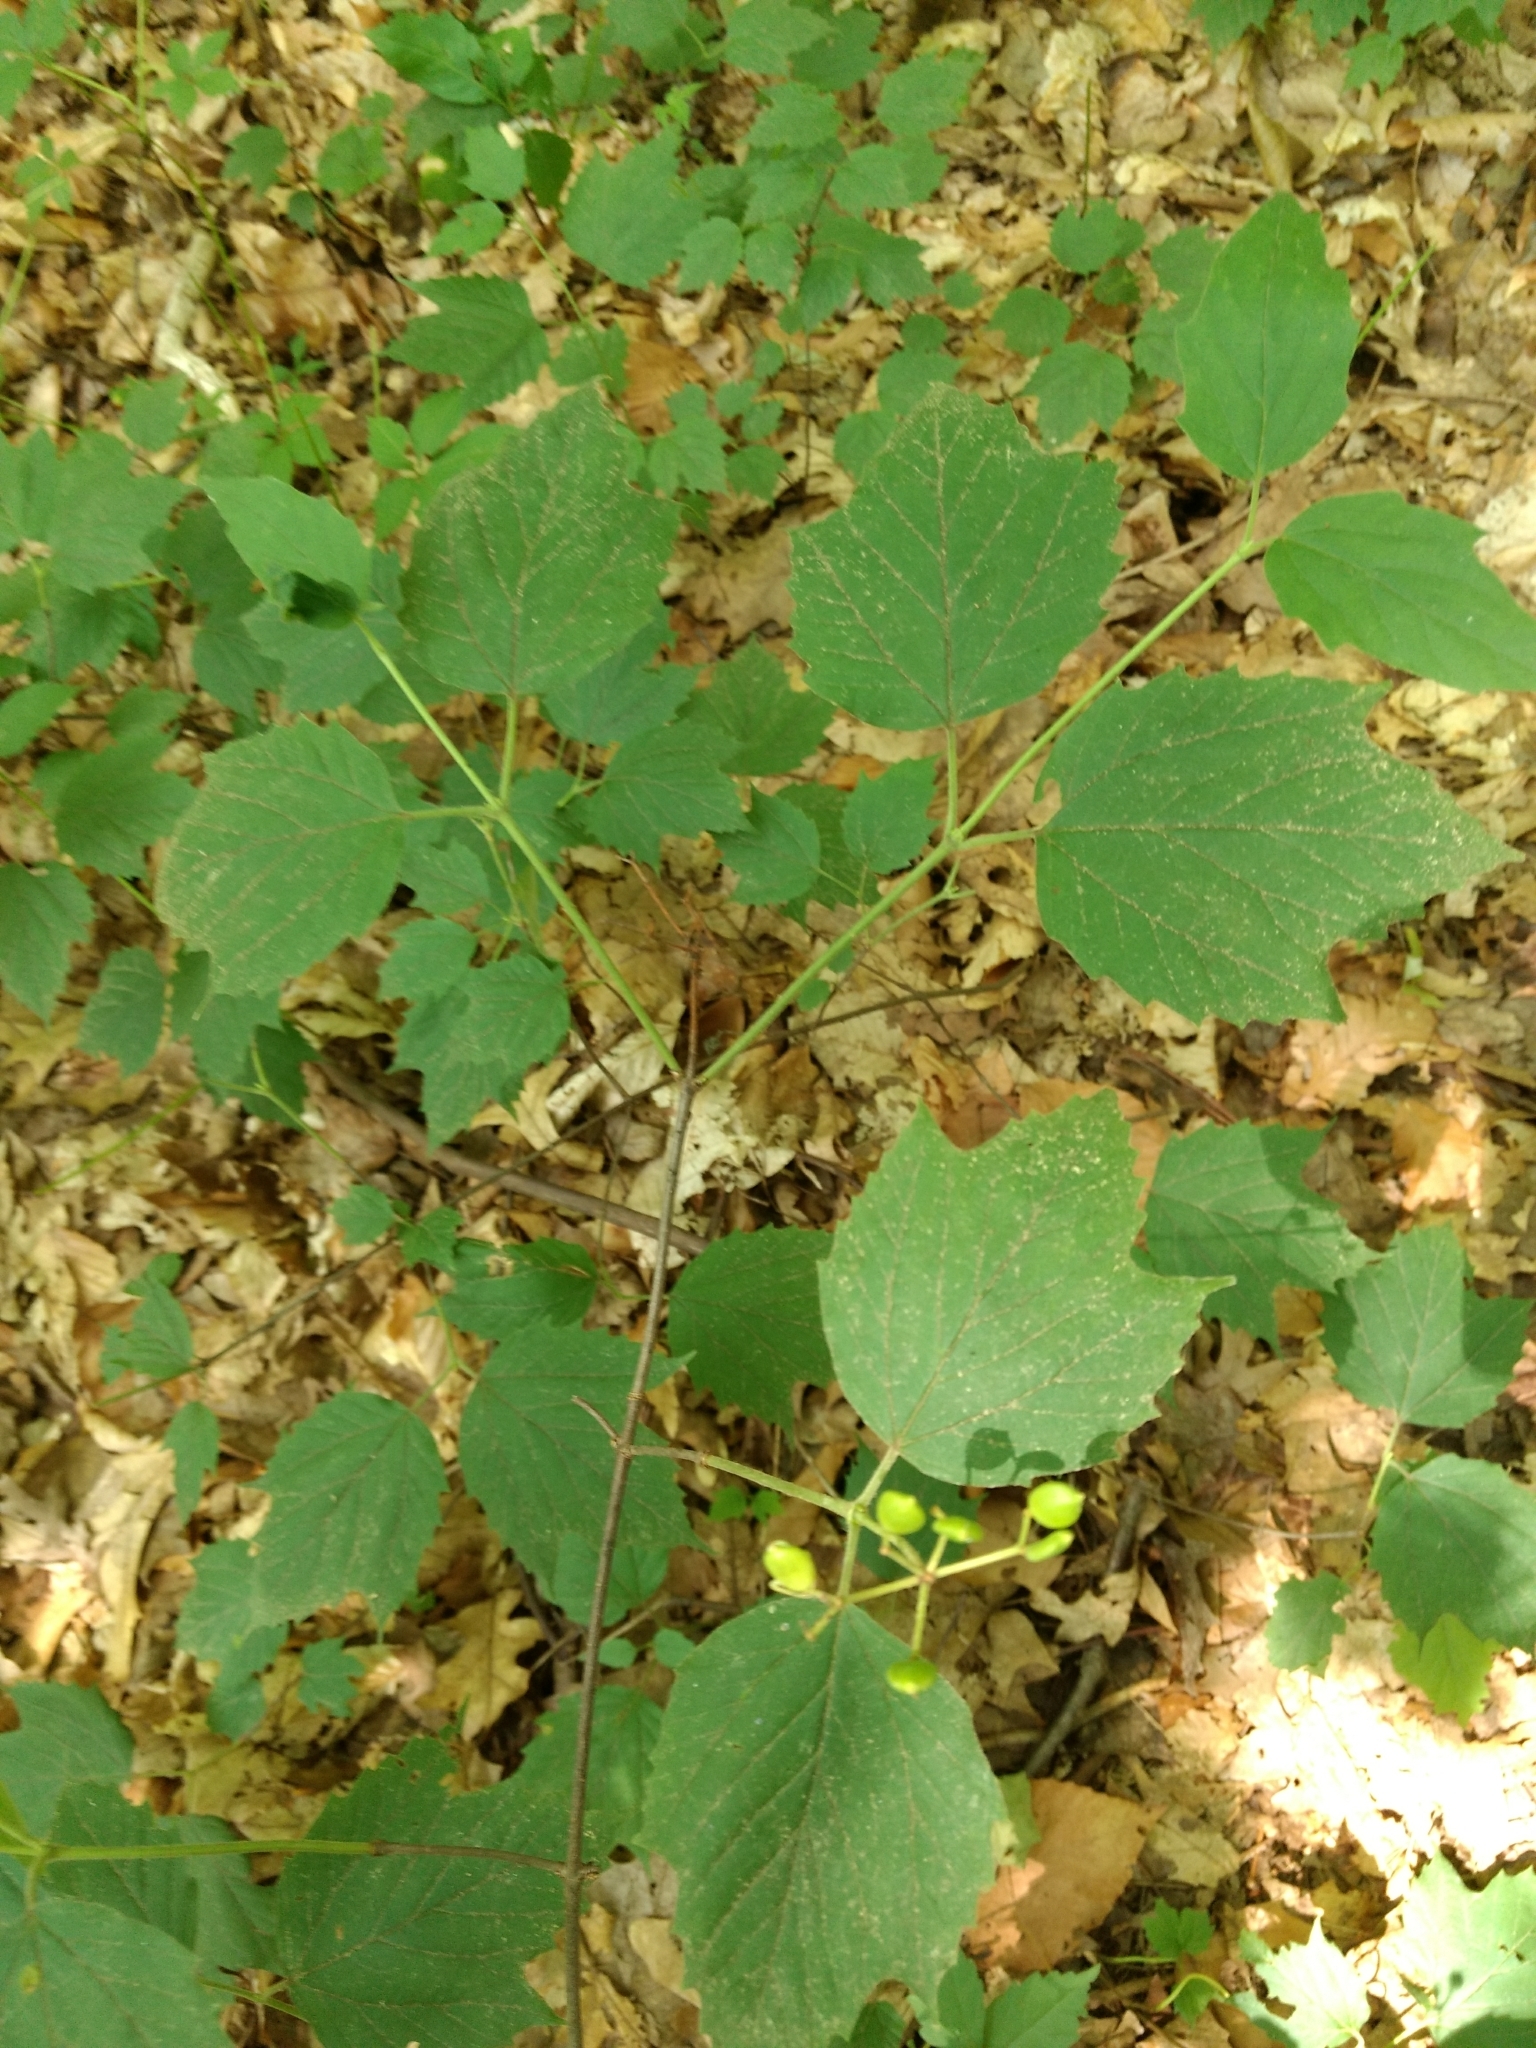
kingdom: Plantae
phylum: Tracheophyta
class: Magnoliopsida
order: Dipsacales
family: Viburnaceae
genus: Viburnum
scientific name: Viburnum acerifolium
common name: Dockmackie
